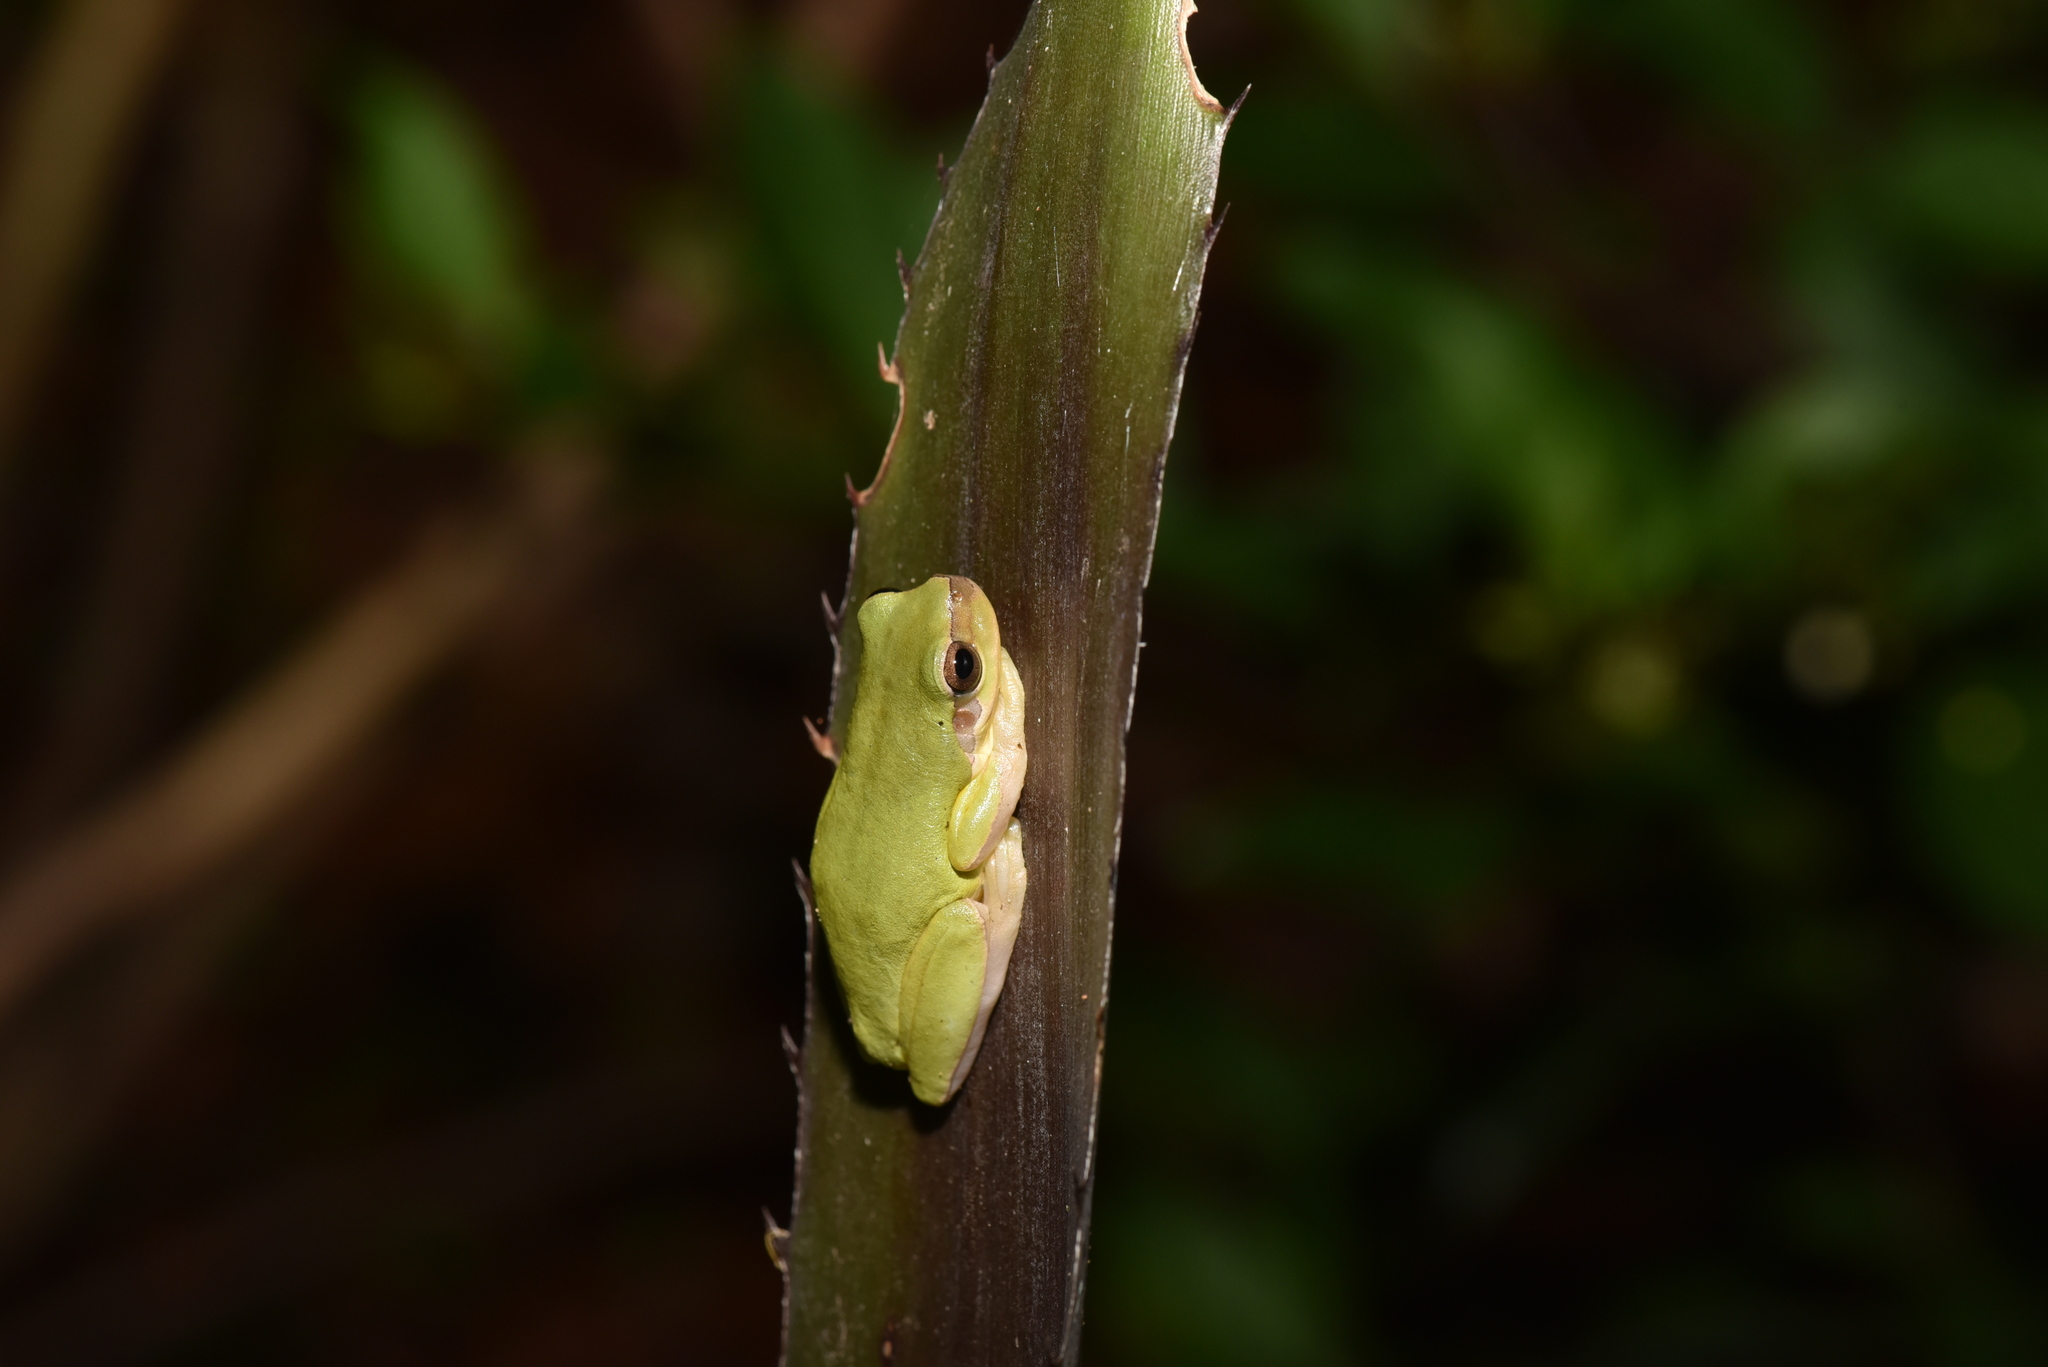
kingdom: Animalia
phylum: Chordata
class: Amphibia
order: Anura
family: Hylidae
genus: Hyla
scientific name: Hyla chinensis
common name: Common chinese treefrog
